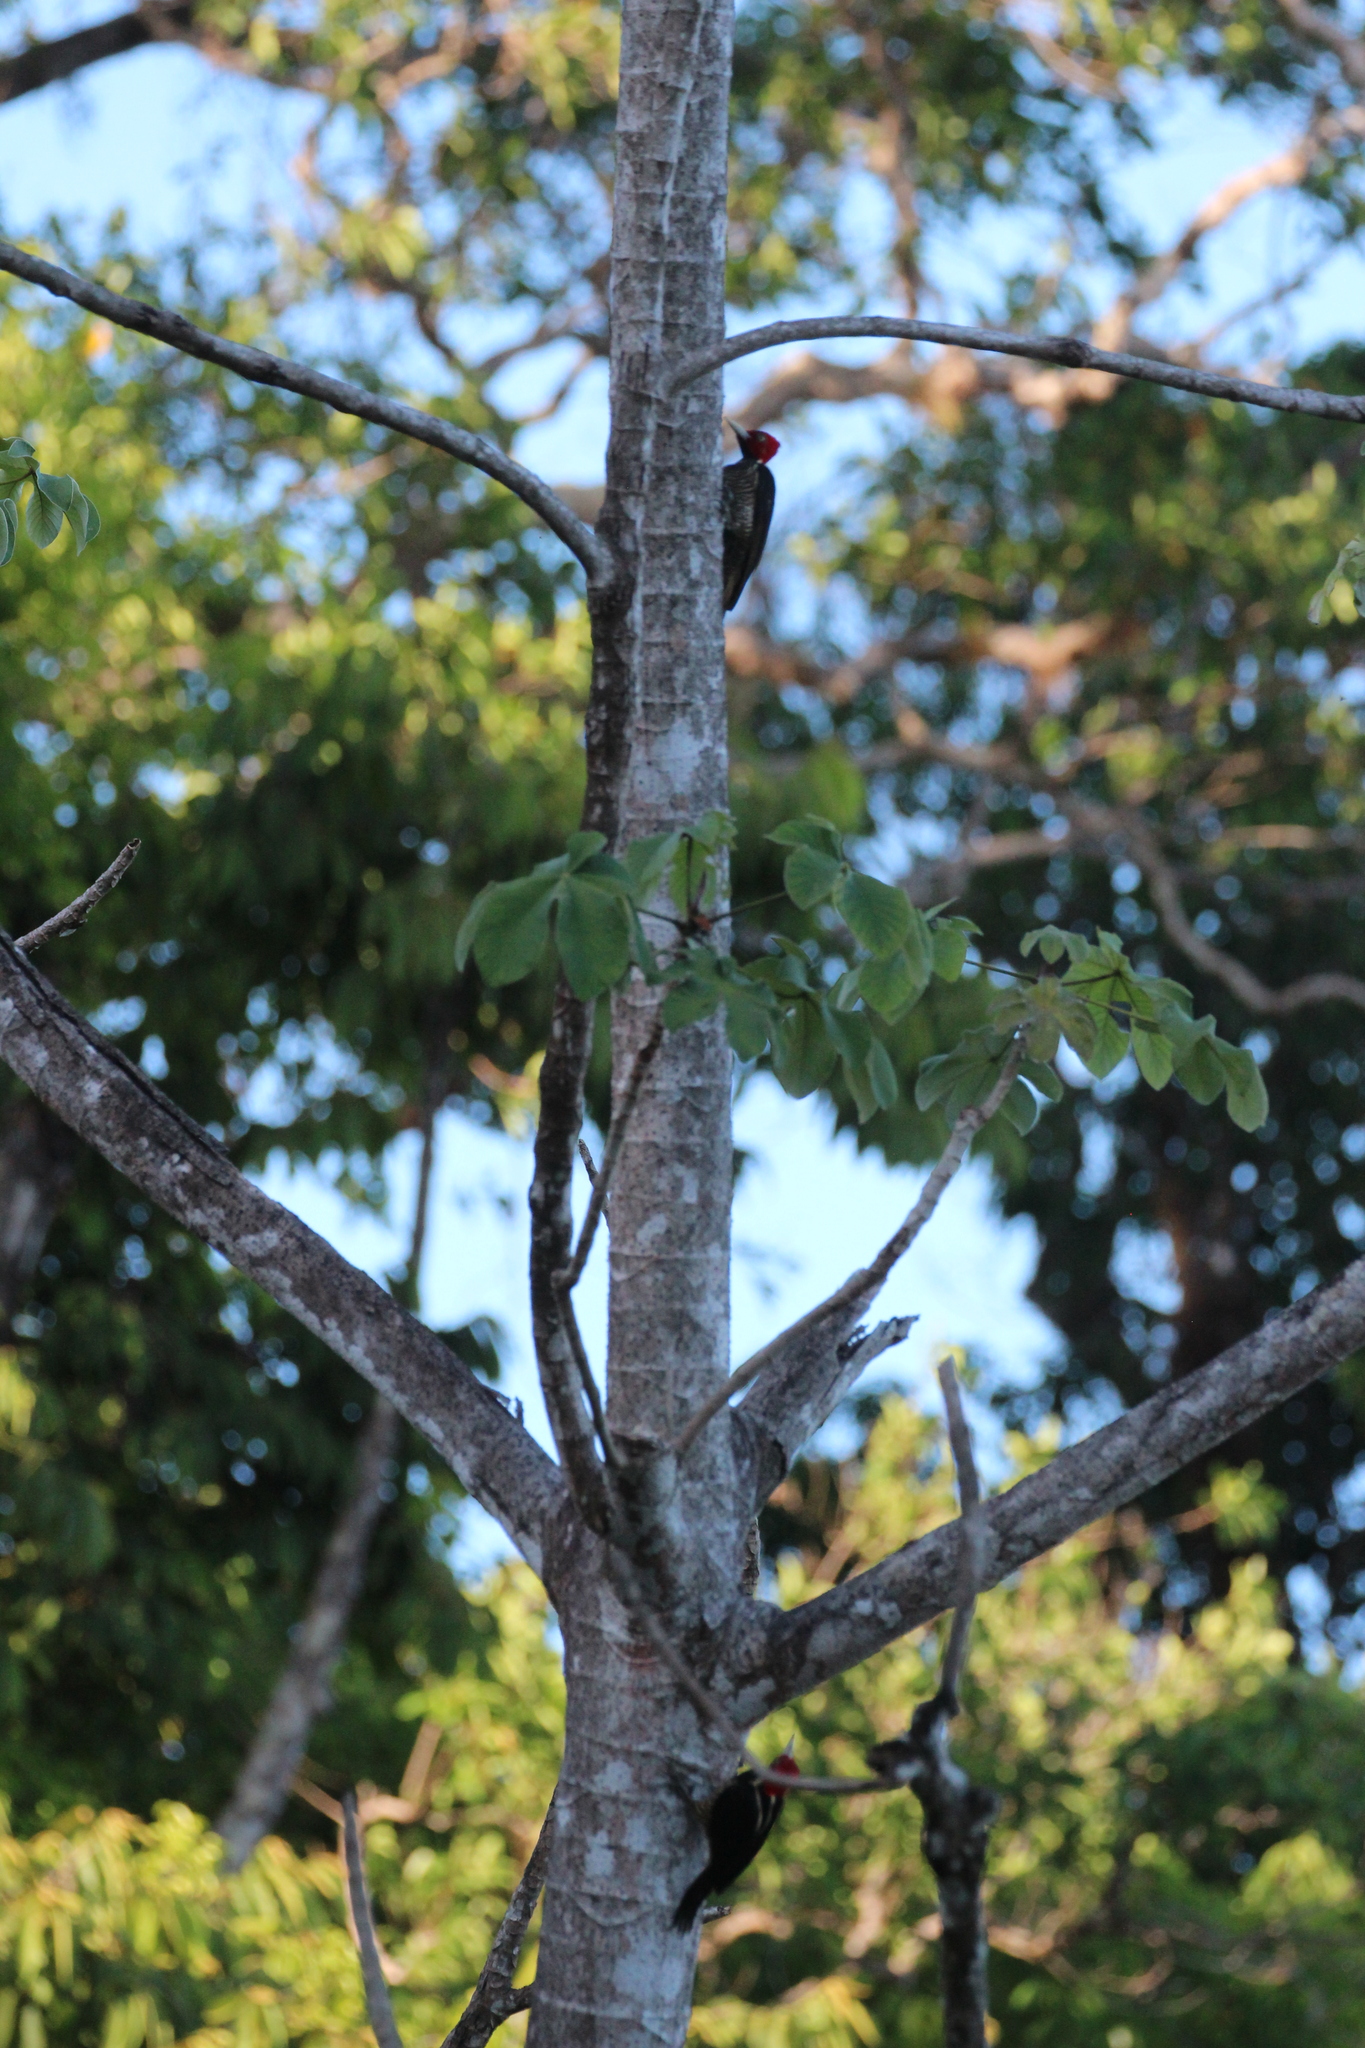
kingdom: Animalia
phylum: Chordata
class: Aves
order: Piciformes
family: Picidae
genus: Campephilus
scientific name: Campephilus guatemalensis
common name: Pale-billed woodpecker
